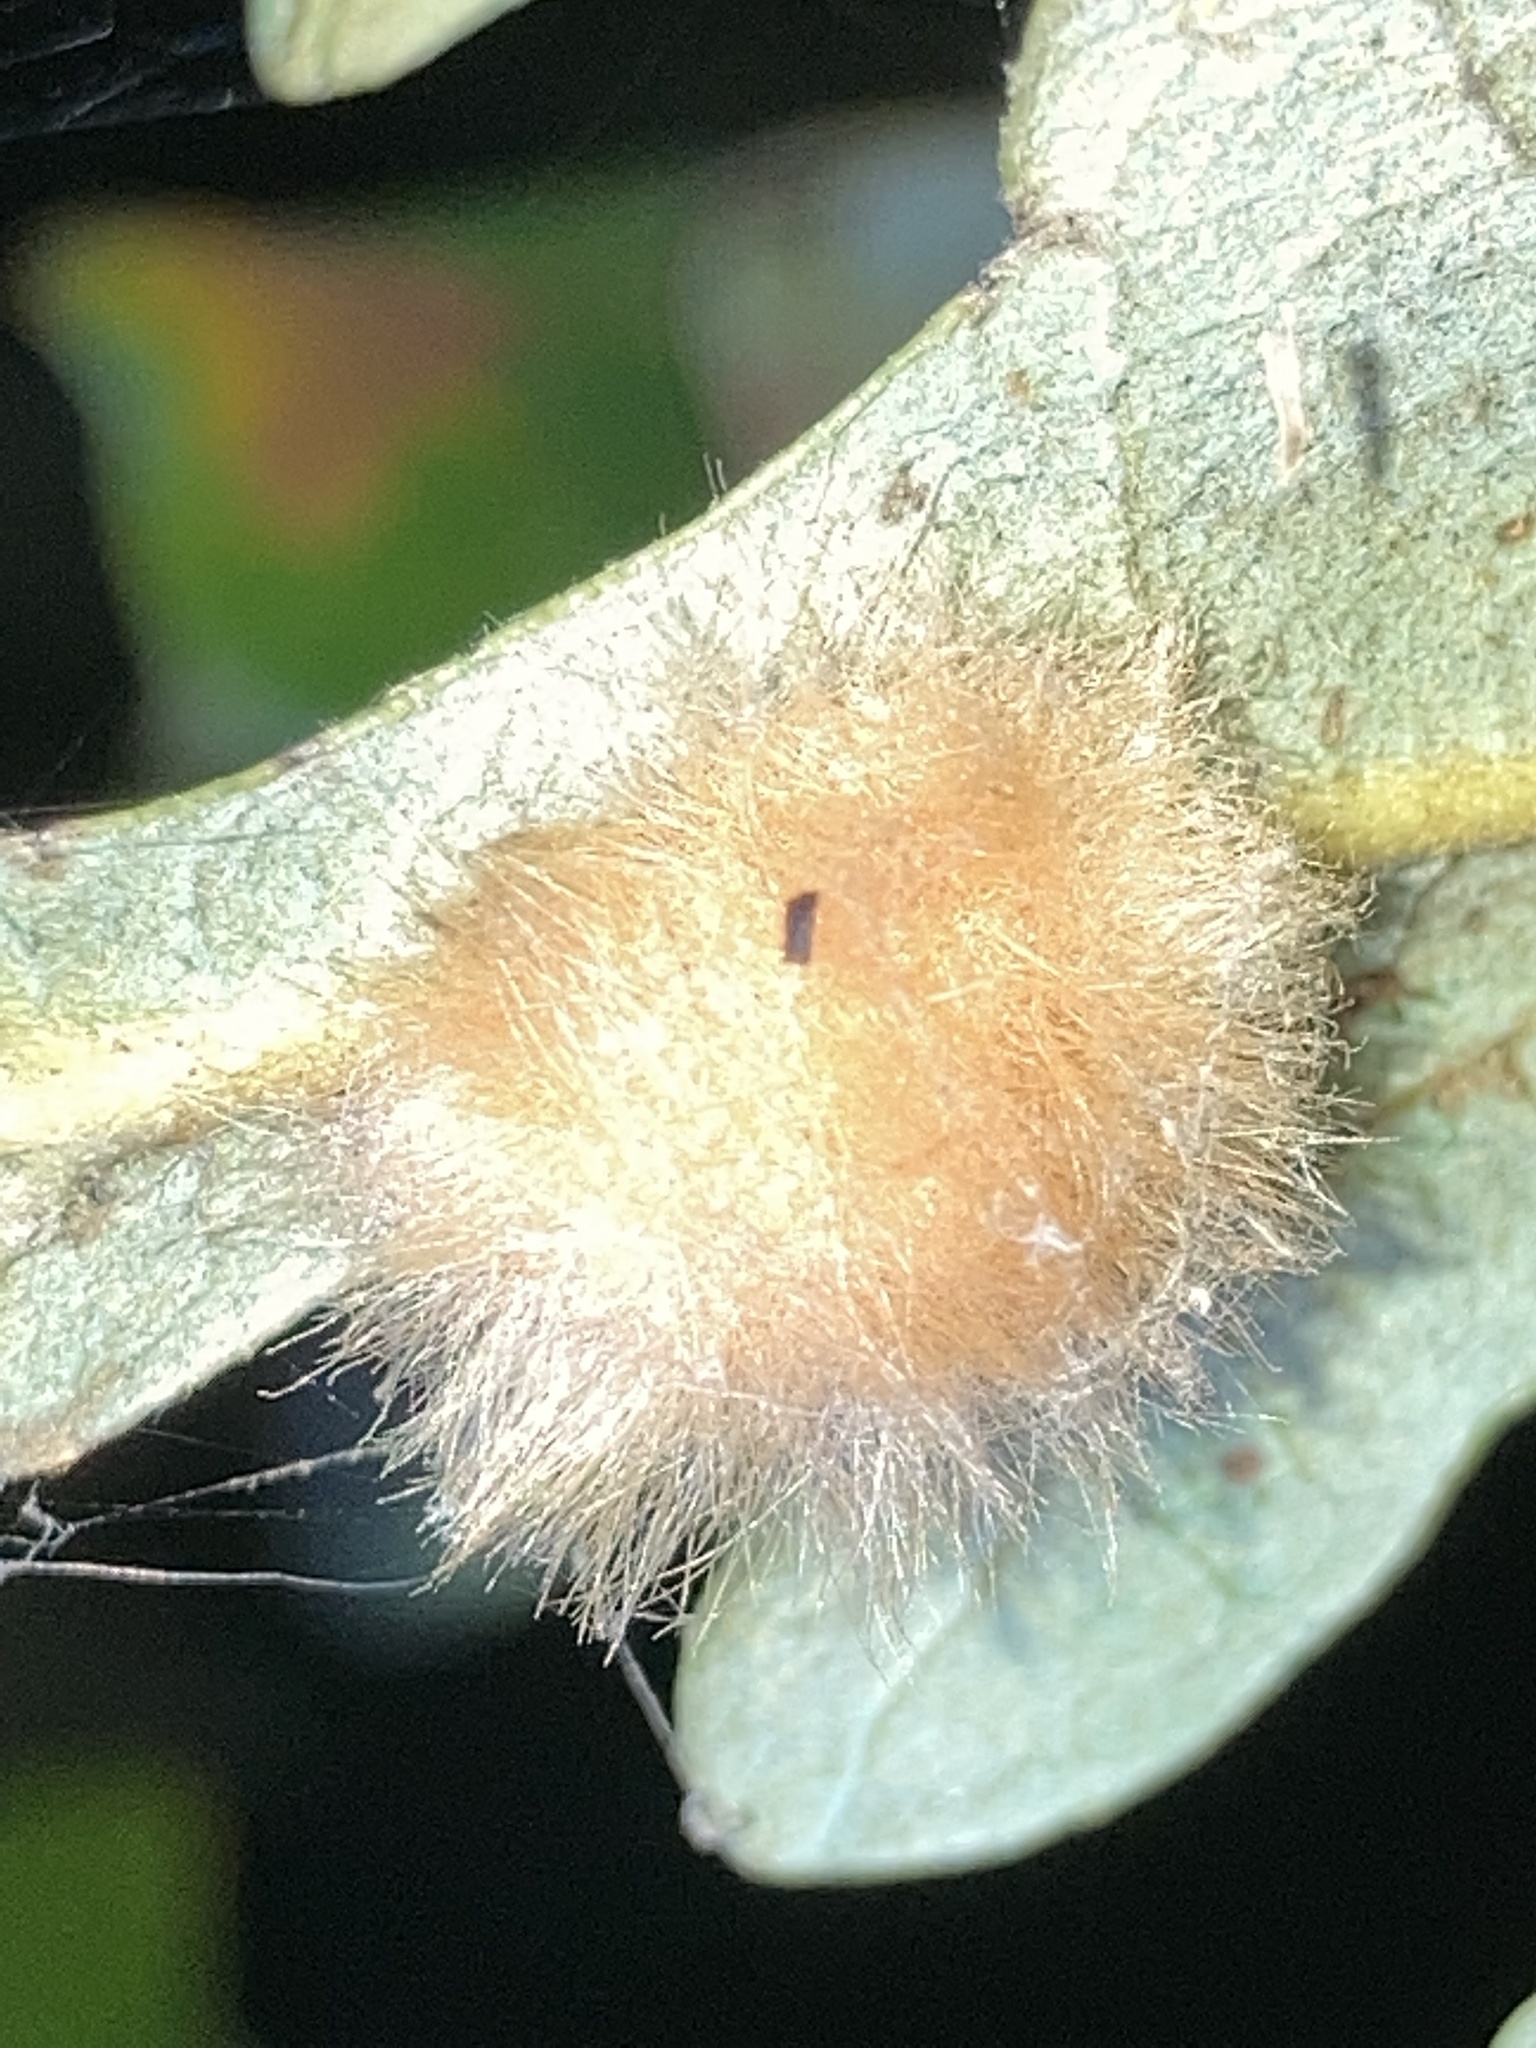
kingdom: Animalia
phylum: Arthropoda
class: Insecta
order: Hymenoptera
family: Cynipidae
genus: Andricus
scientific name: Andricus Druon pattoni
